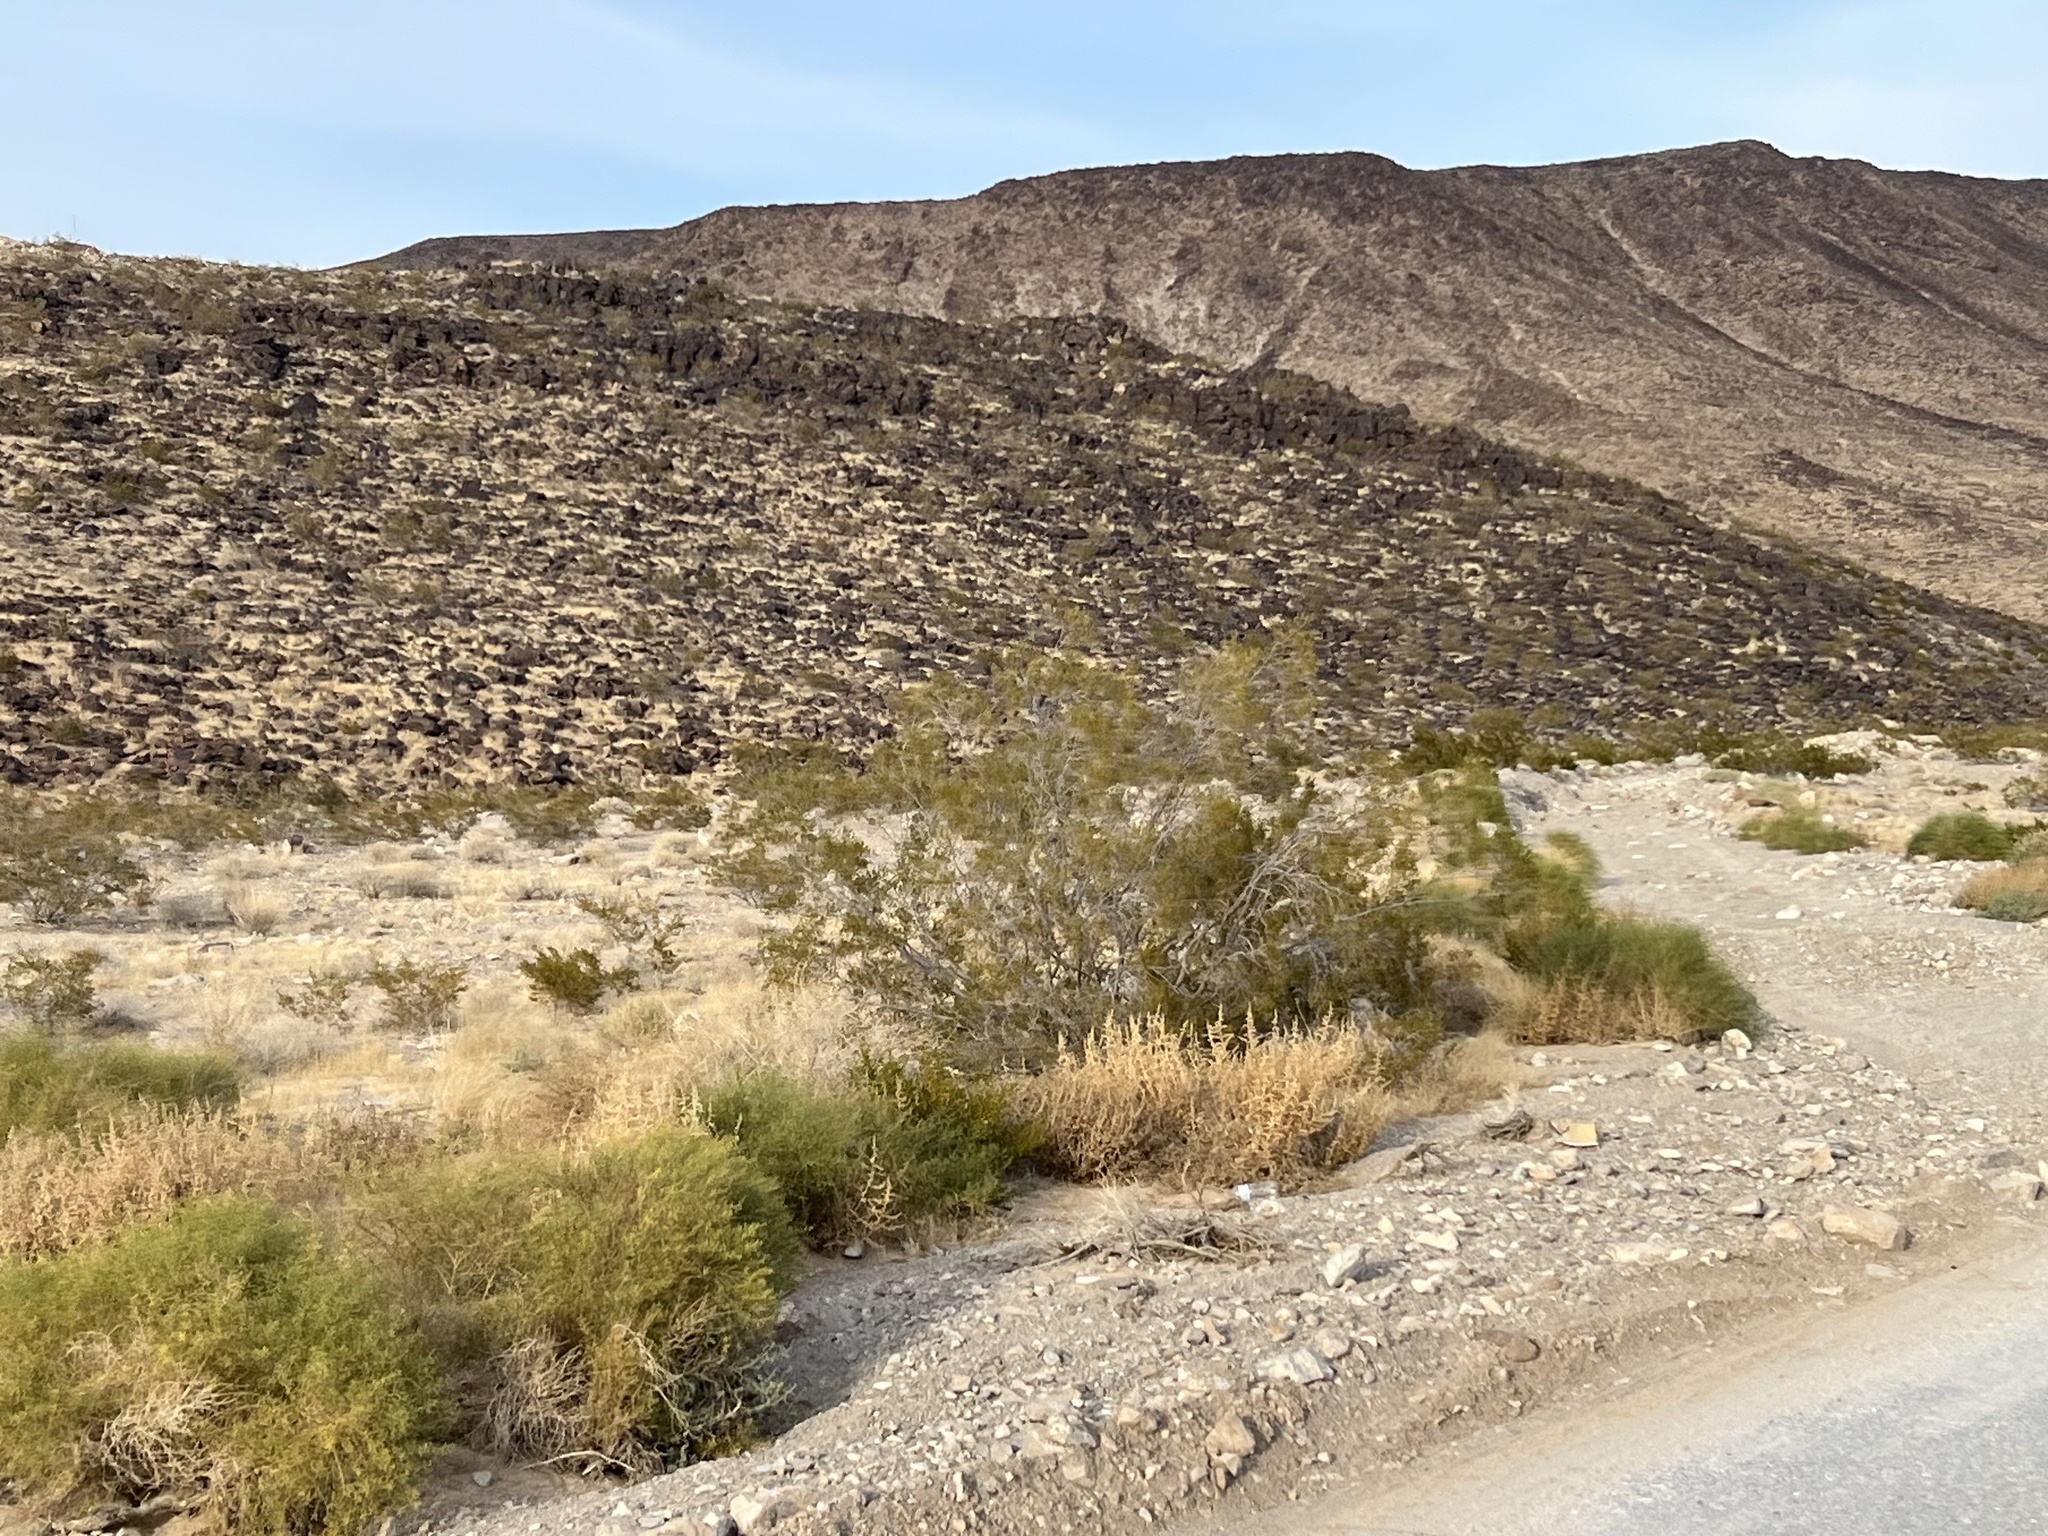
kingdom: Plantae
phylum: Tracheophyta
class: Magnoliopsida
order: Zygophyllales
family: Zygophyllaceae
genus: Larrea
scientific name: Larrea tridentata
